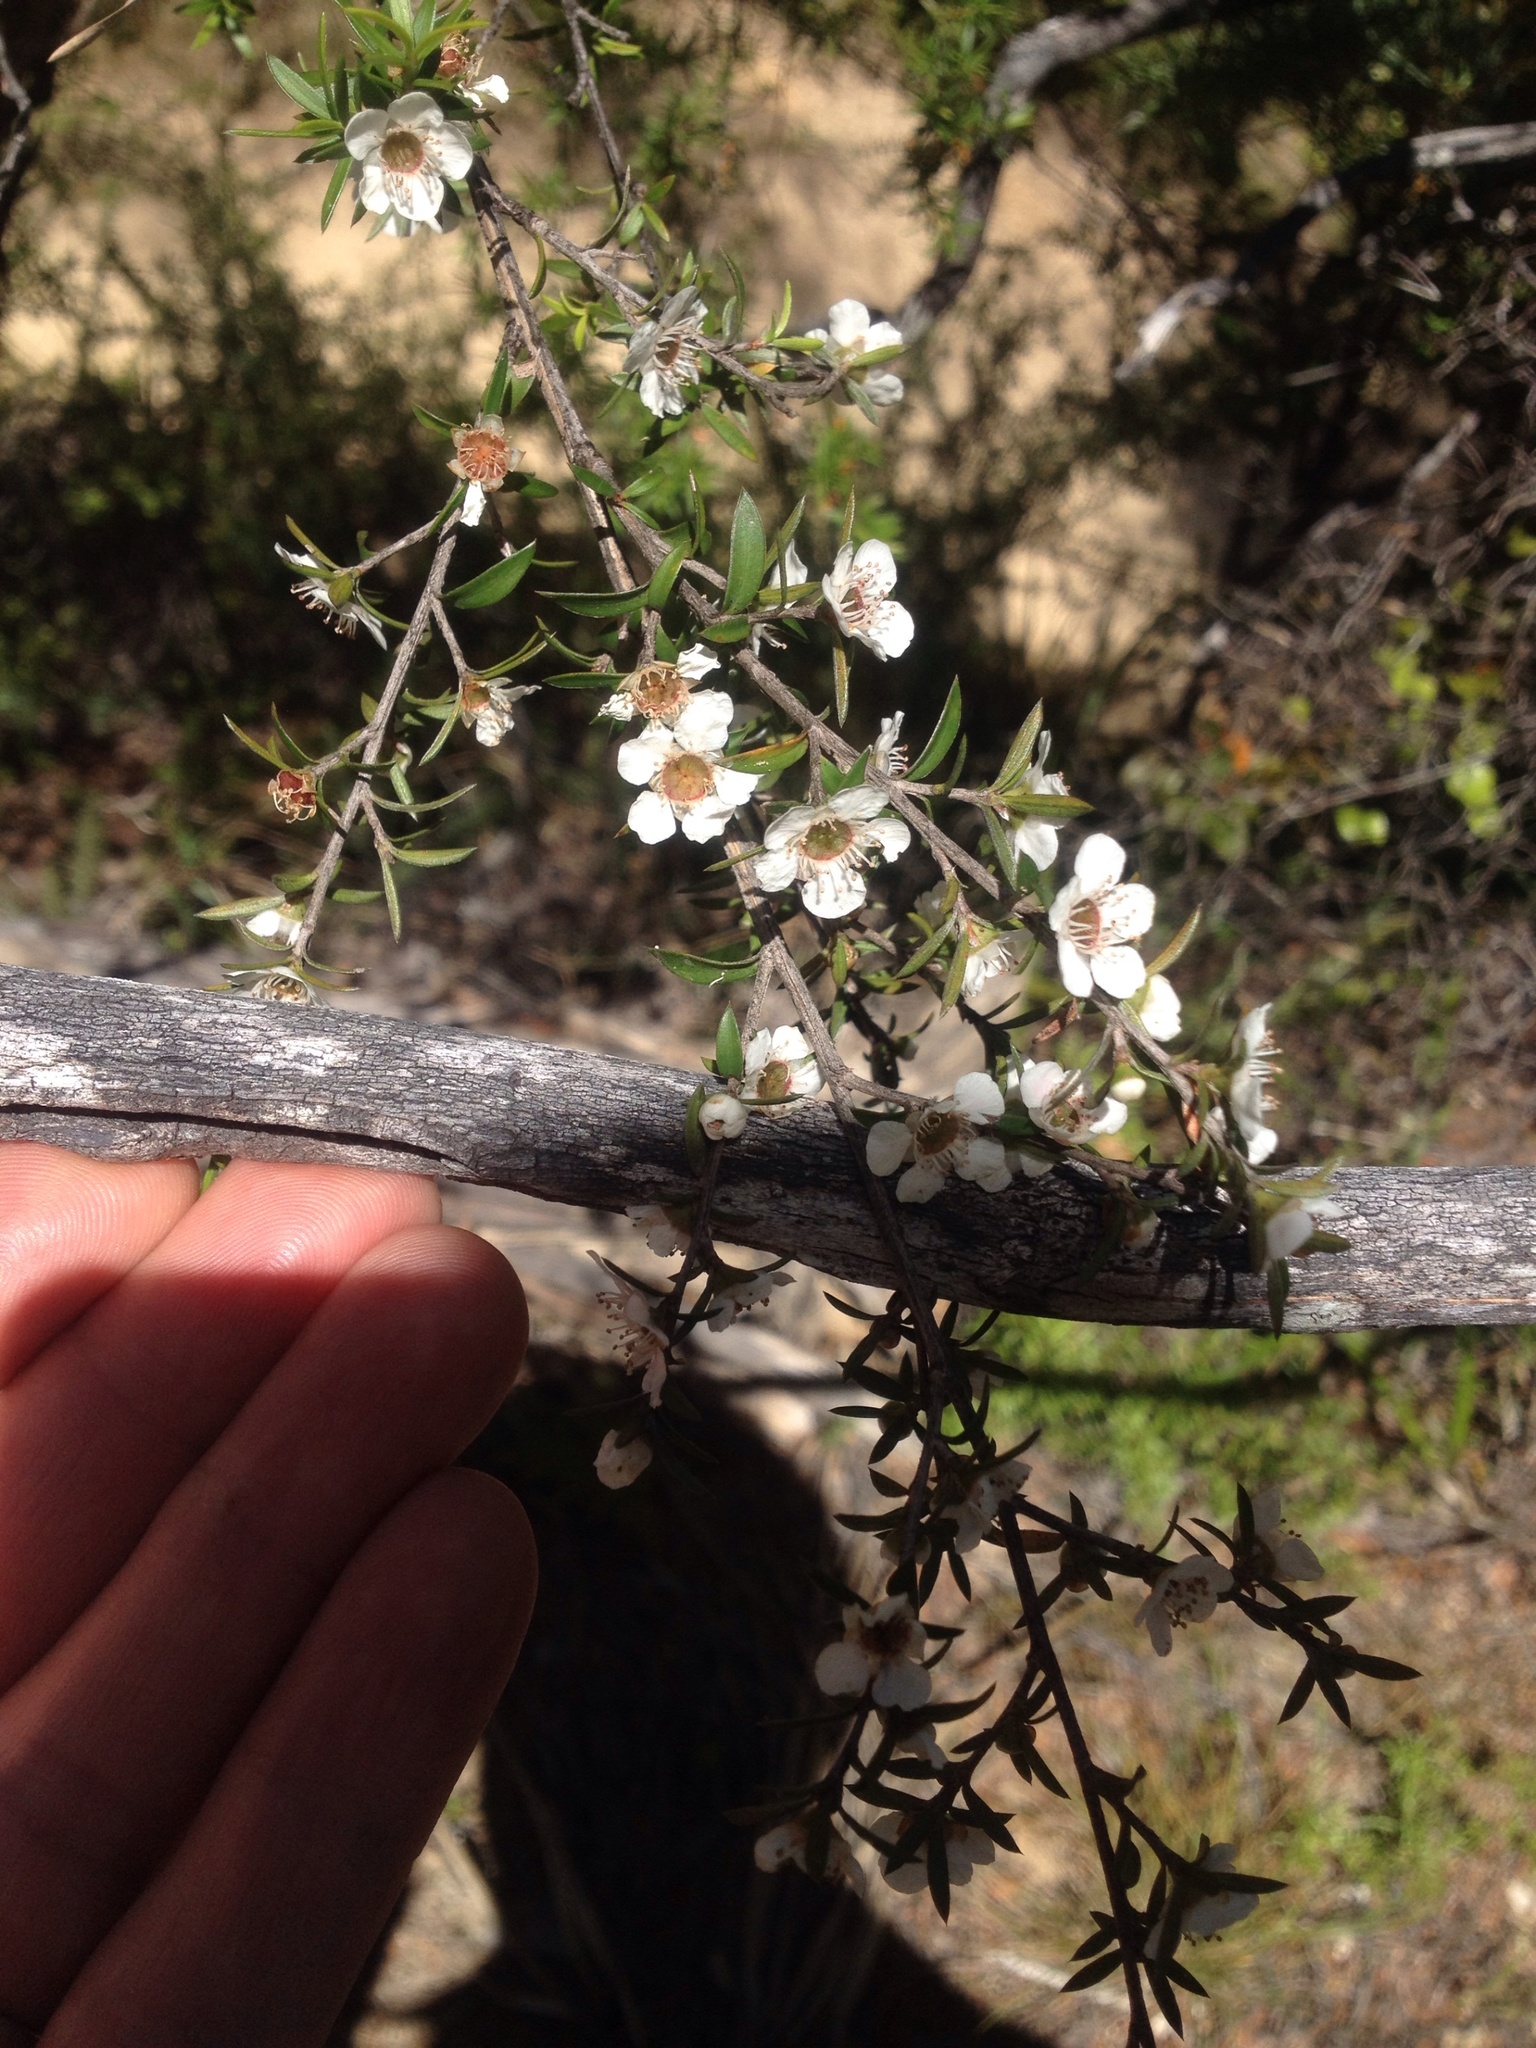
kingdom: Plantae
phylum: Tracheophyta
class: Magnoliopsida
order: Myrtales
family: Myrtaceae
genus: Leptospermum
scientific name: Leptospermum scoparium
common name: Broom tea-tree
